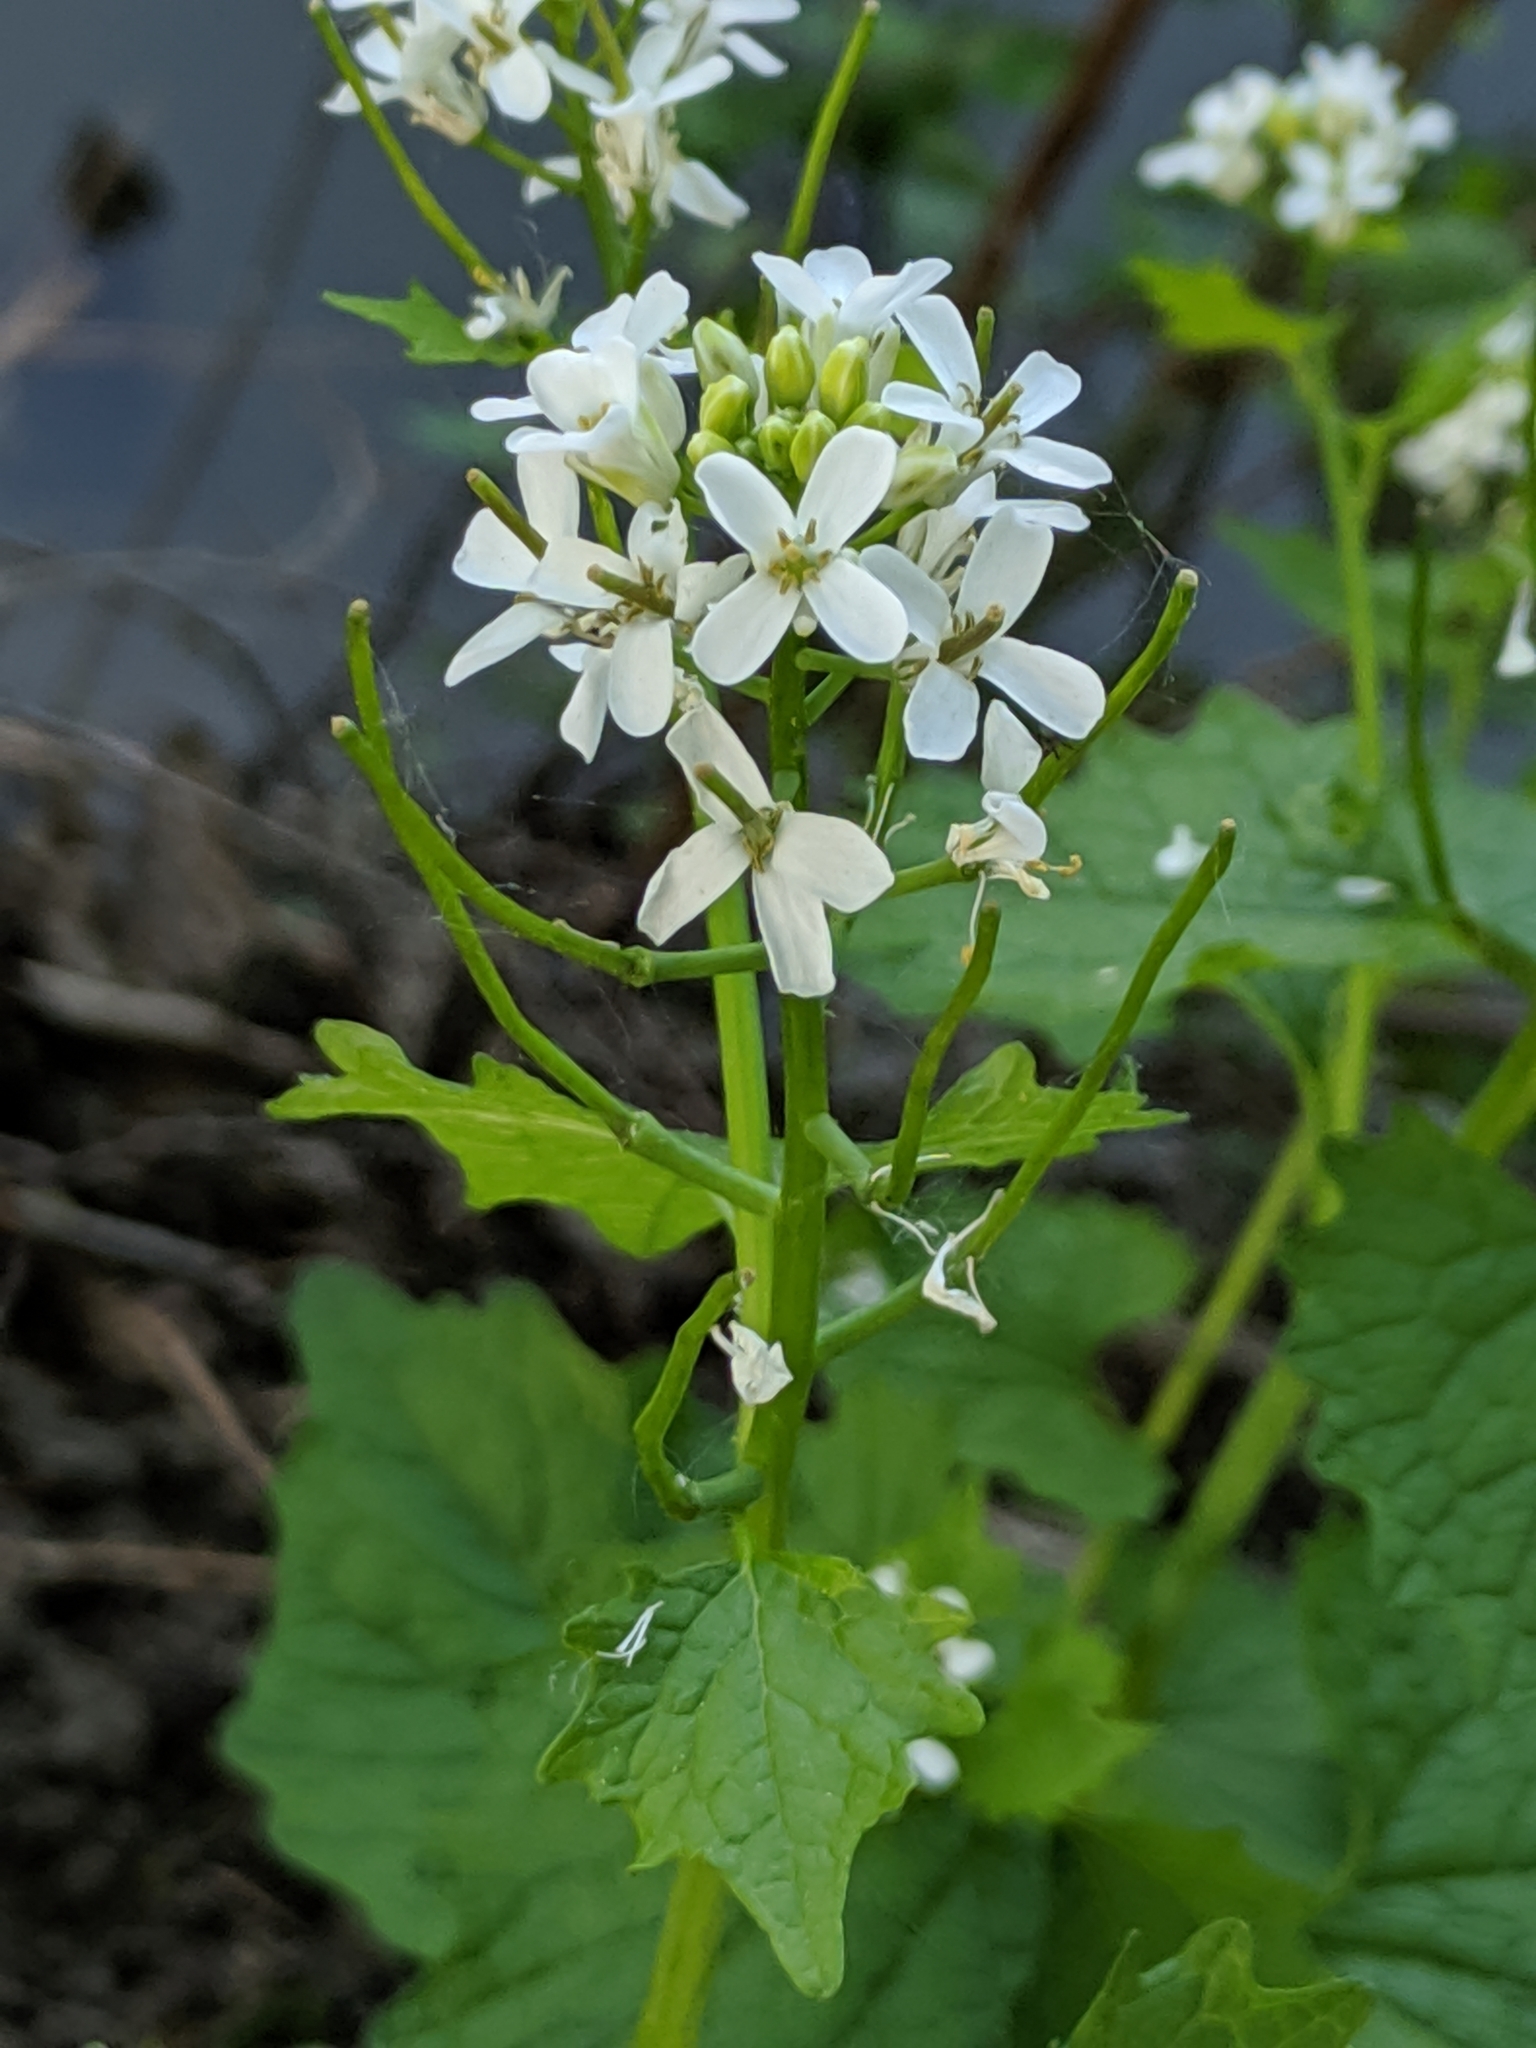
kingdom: Plantae
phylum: Tracheophyta
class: Magnoliopsida
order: Brassicales
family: Brassicaceae
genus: Alliaria
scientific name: Alliaria petiolata
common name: Garlic mustard
